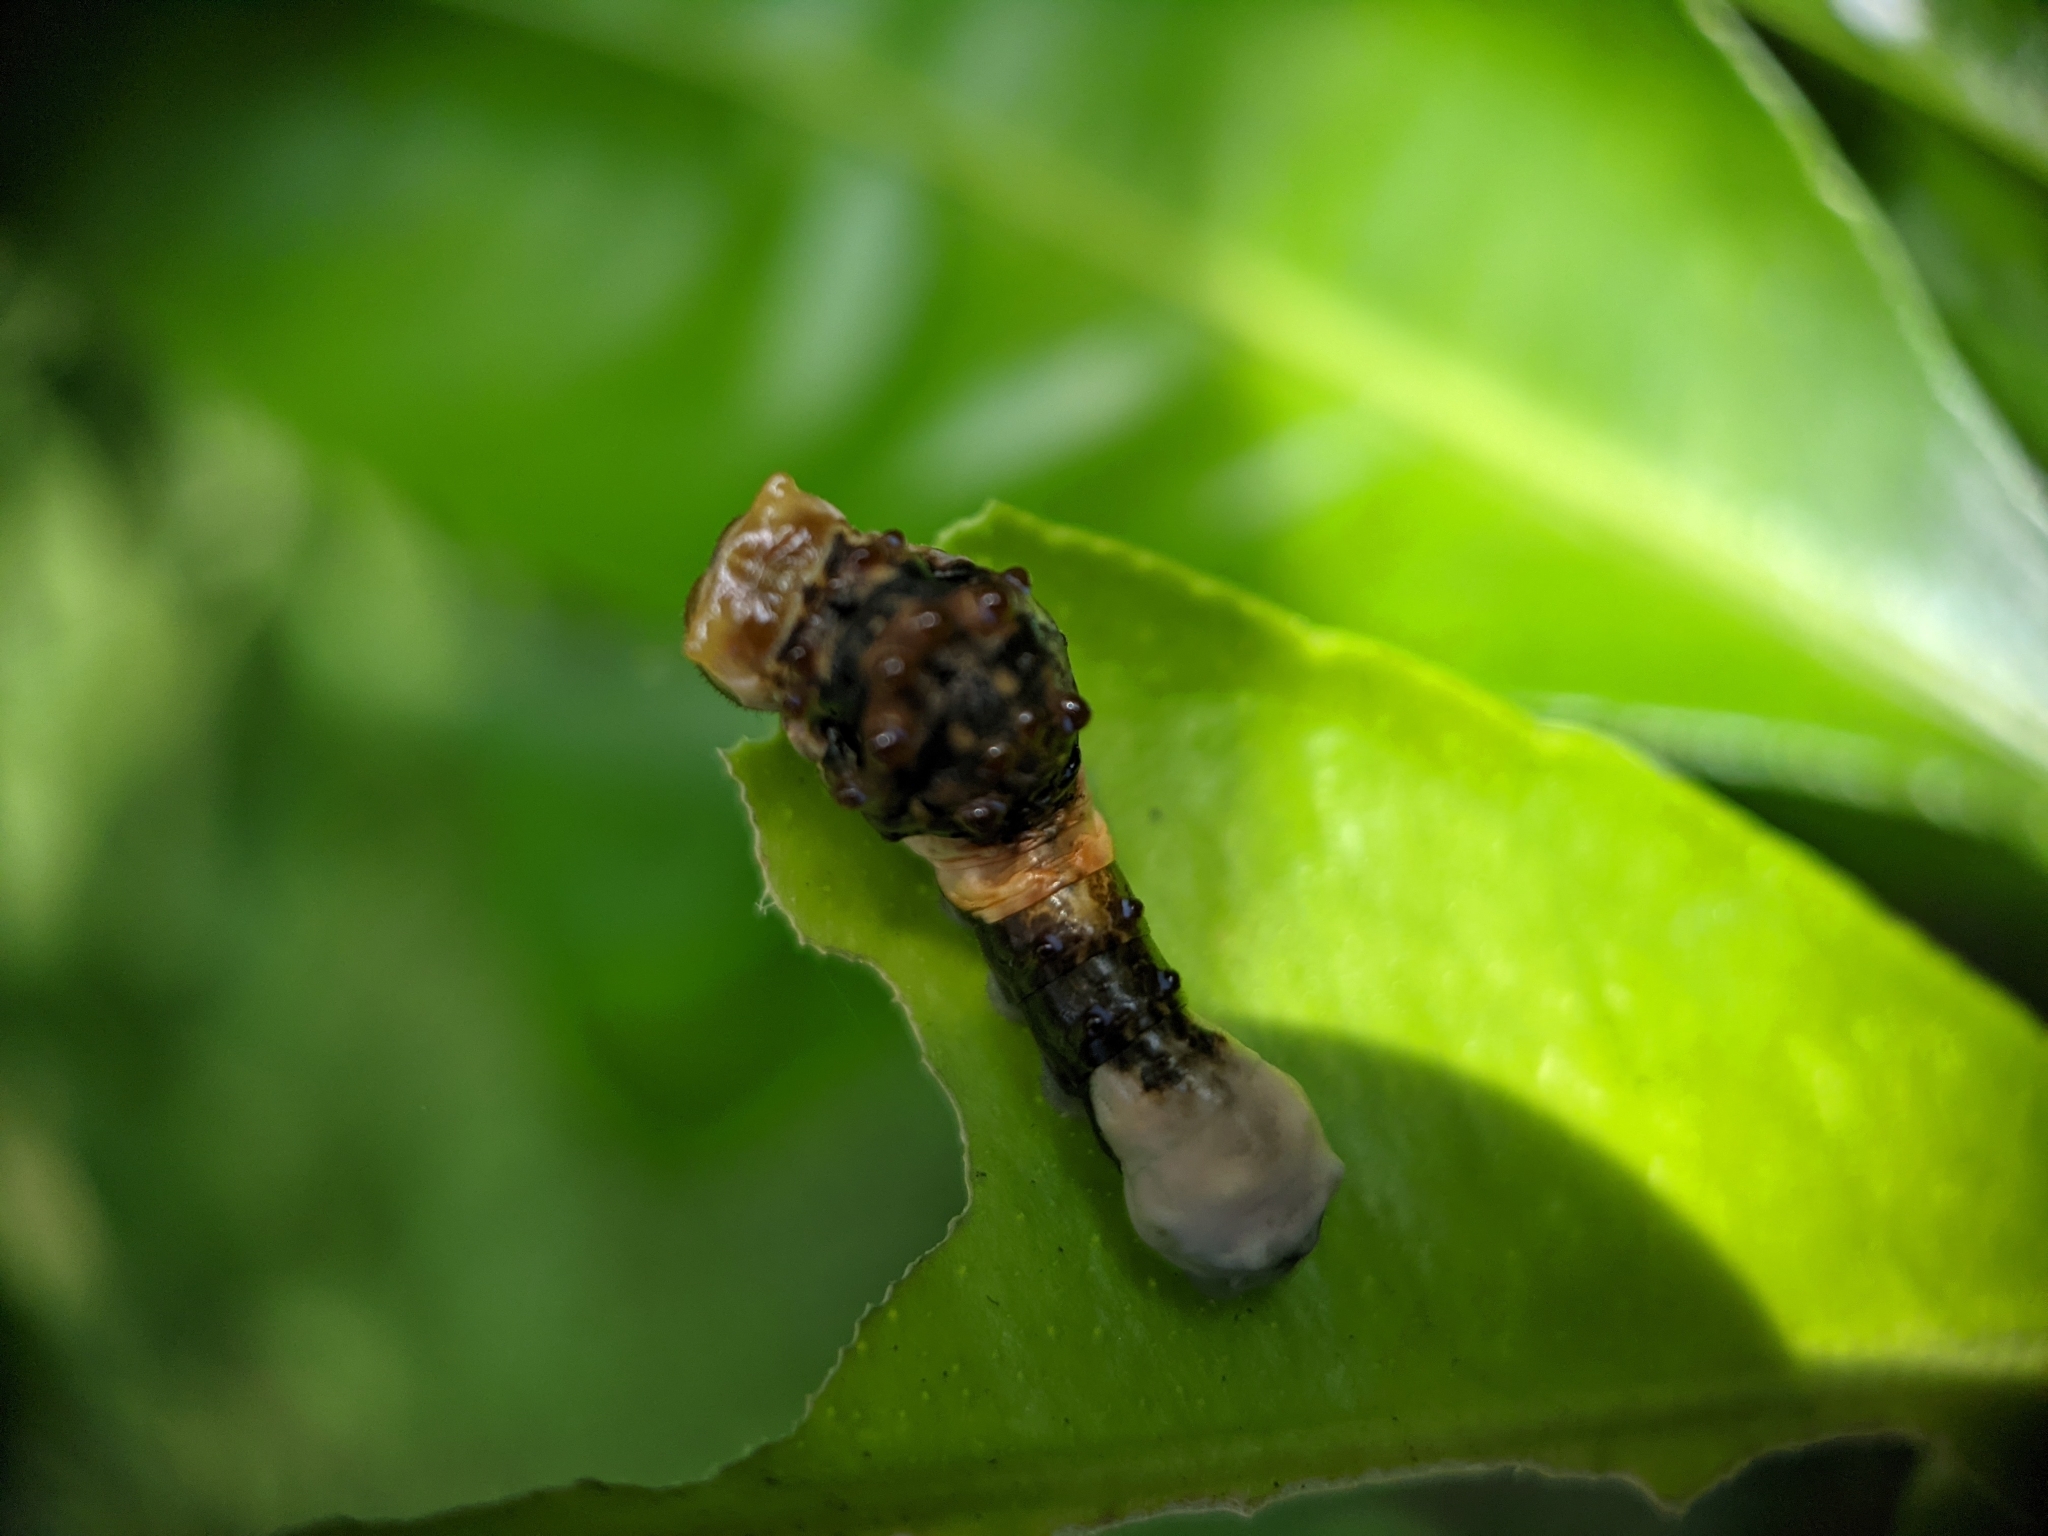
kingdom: Animalia
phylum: Arthropoda
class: Insecta
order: Lepidoptera
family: Papilionidae
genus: Papilio
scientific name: Papilio cresphontes
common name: Giant swallowtail
